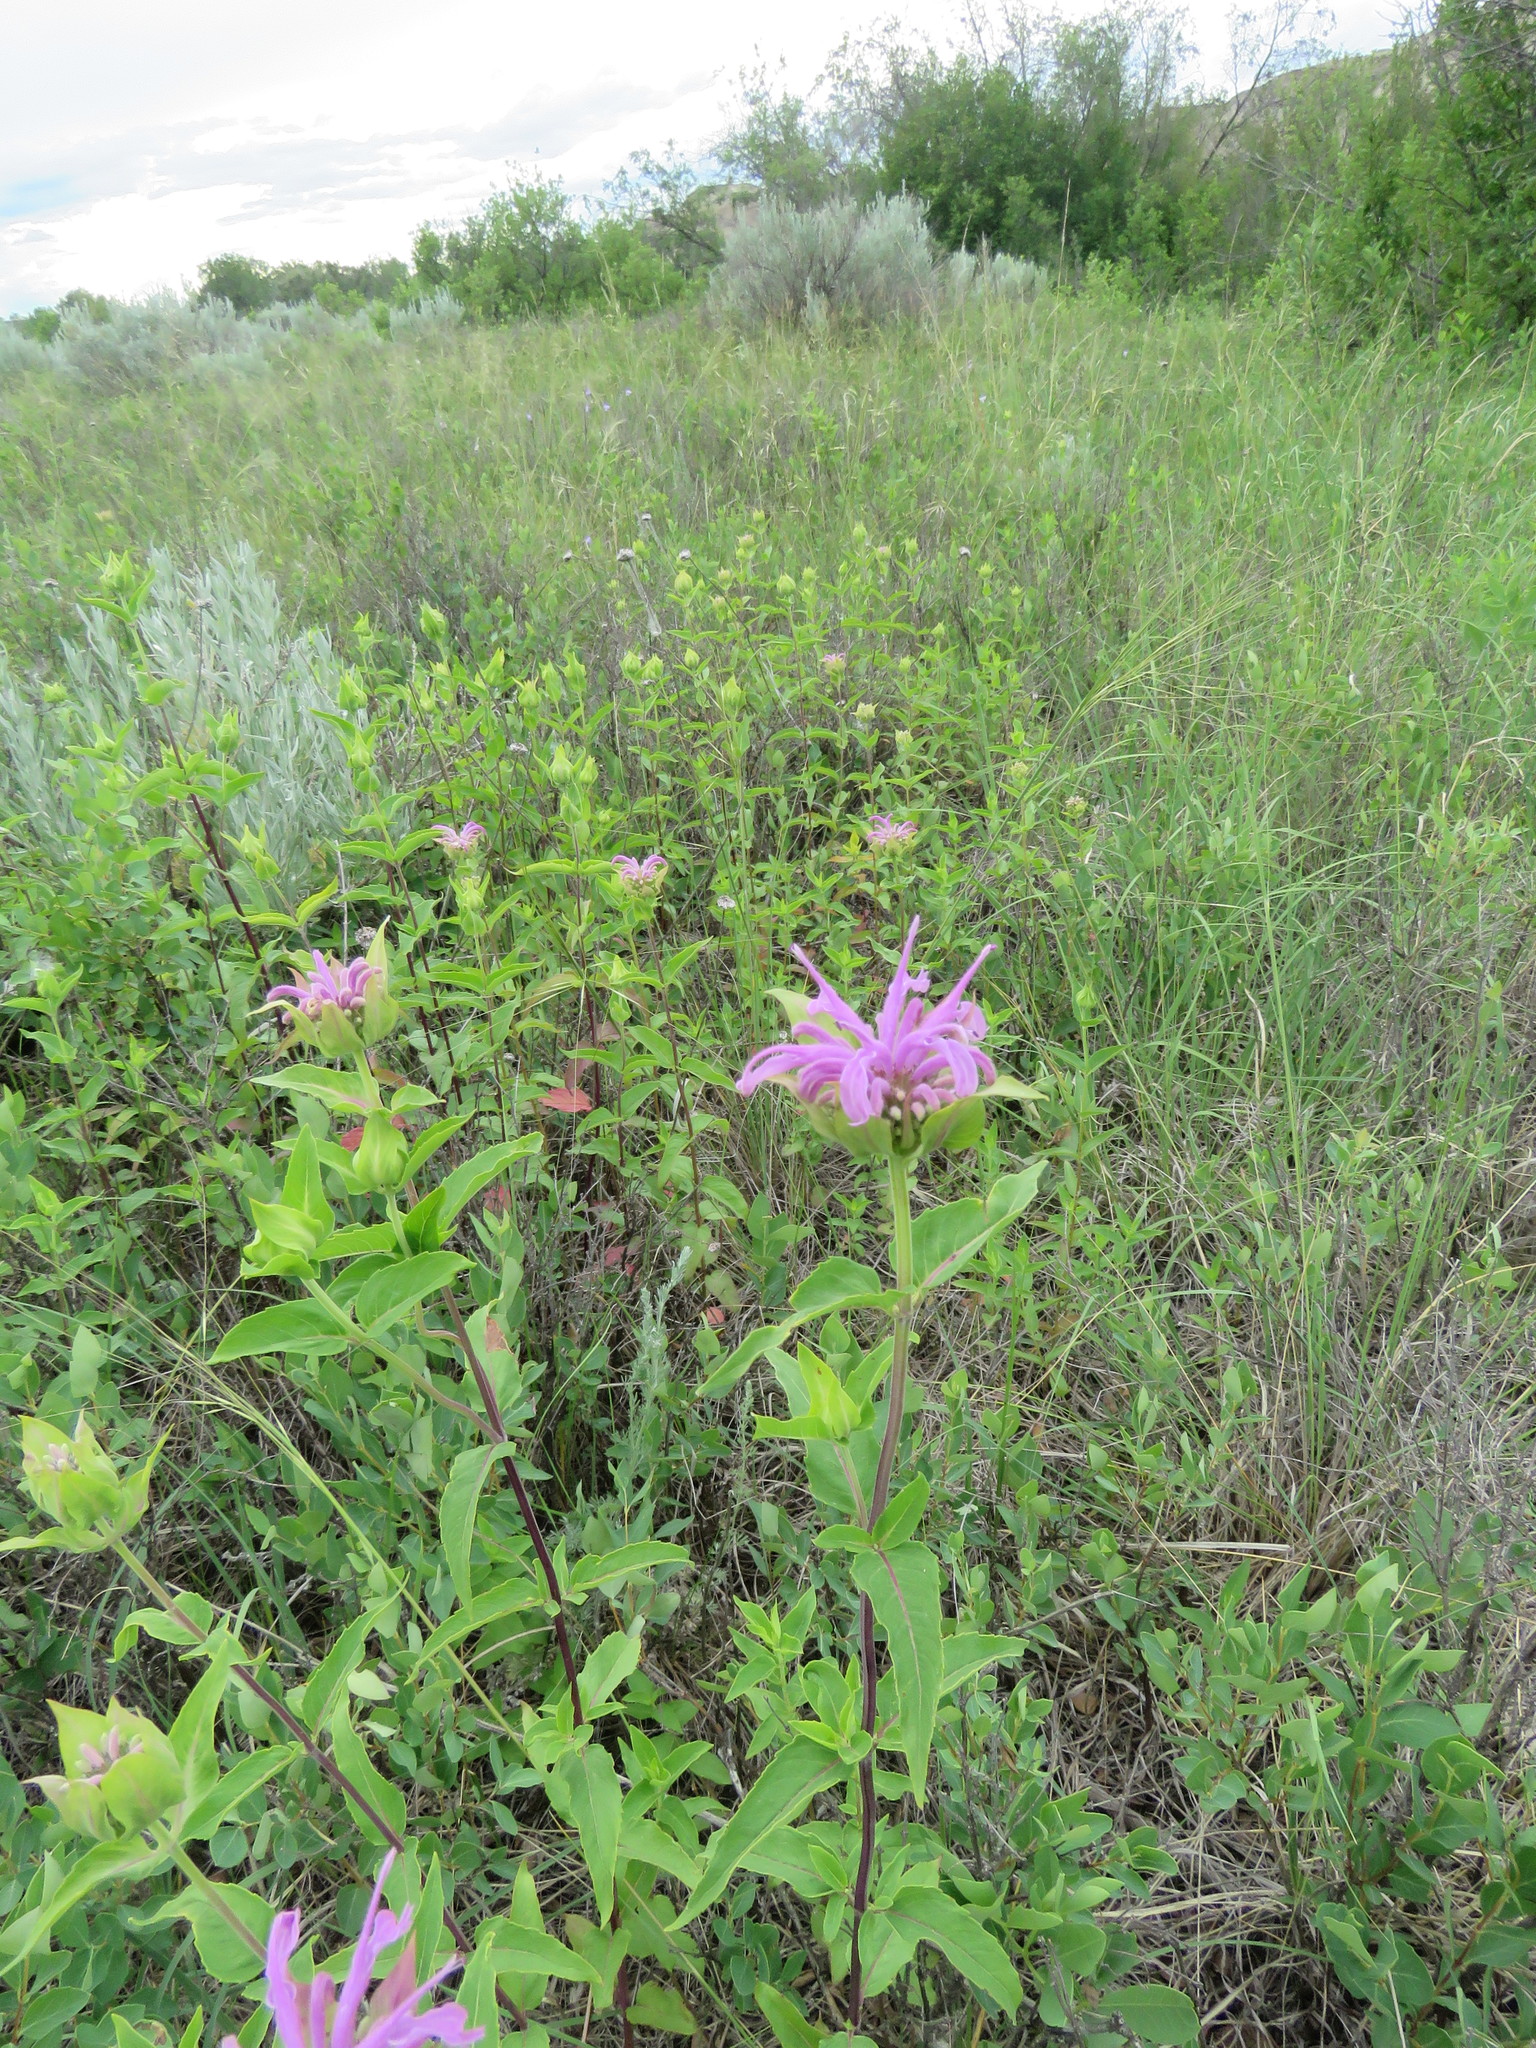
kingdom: Plantae
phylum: Tracheophyta
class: Magnoliopsida
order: Lamiales
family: Lamiaceae
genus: Monarda
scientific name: Monarda fistulosa
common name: Purple beebalm
